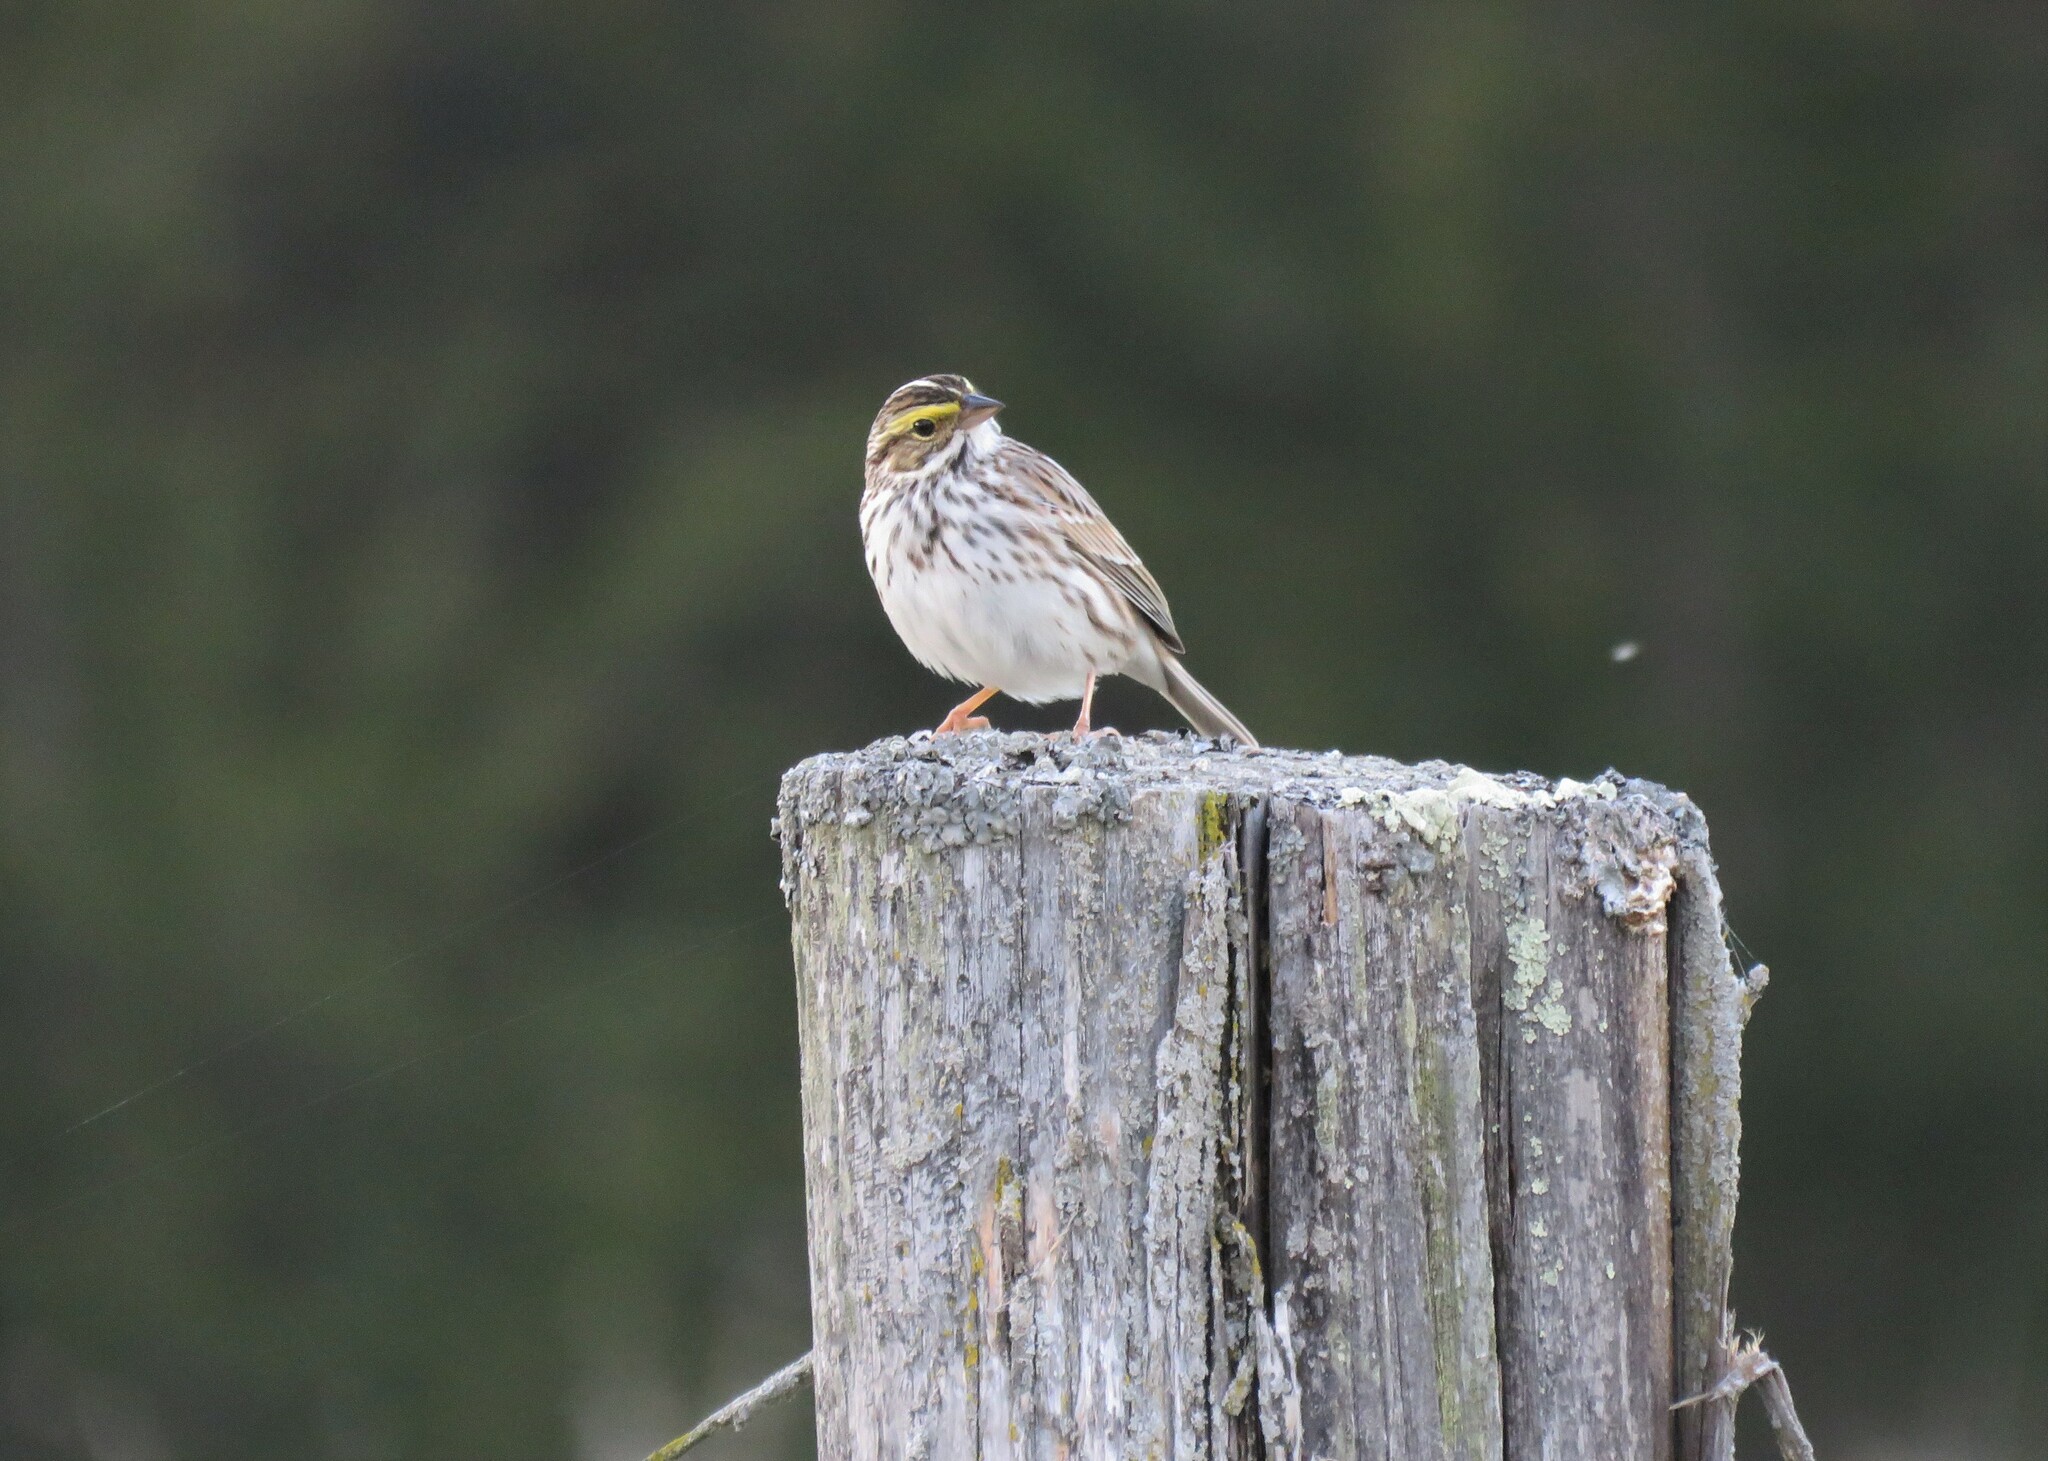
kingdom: Animalia
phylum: Chordata
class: Aves
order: Passeriformes
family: Passerellidae
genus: Passerculus
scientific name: Passerculus sandwichensis
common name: Savannah sparrow
